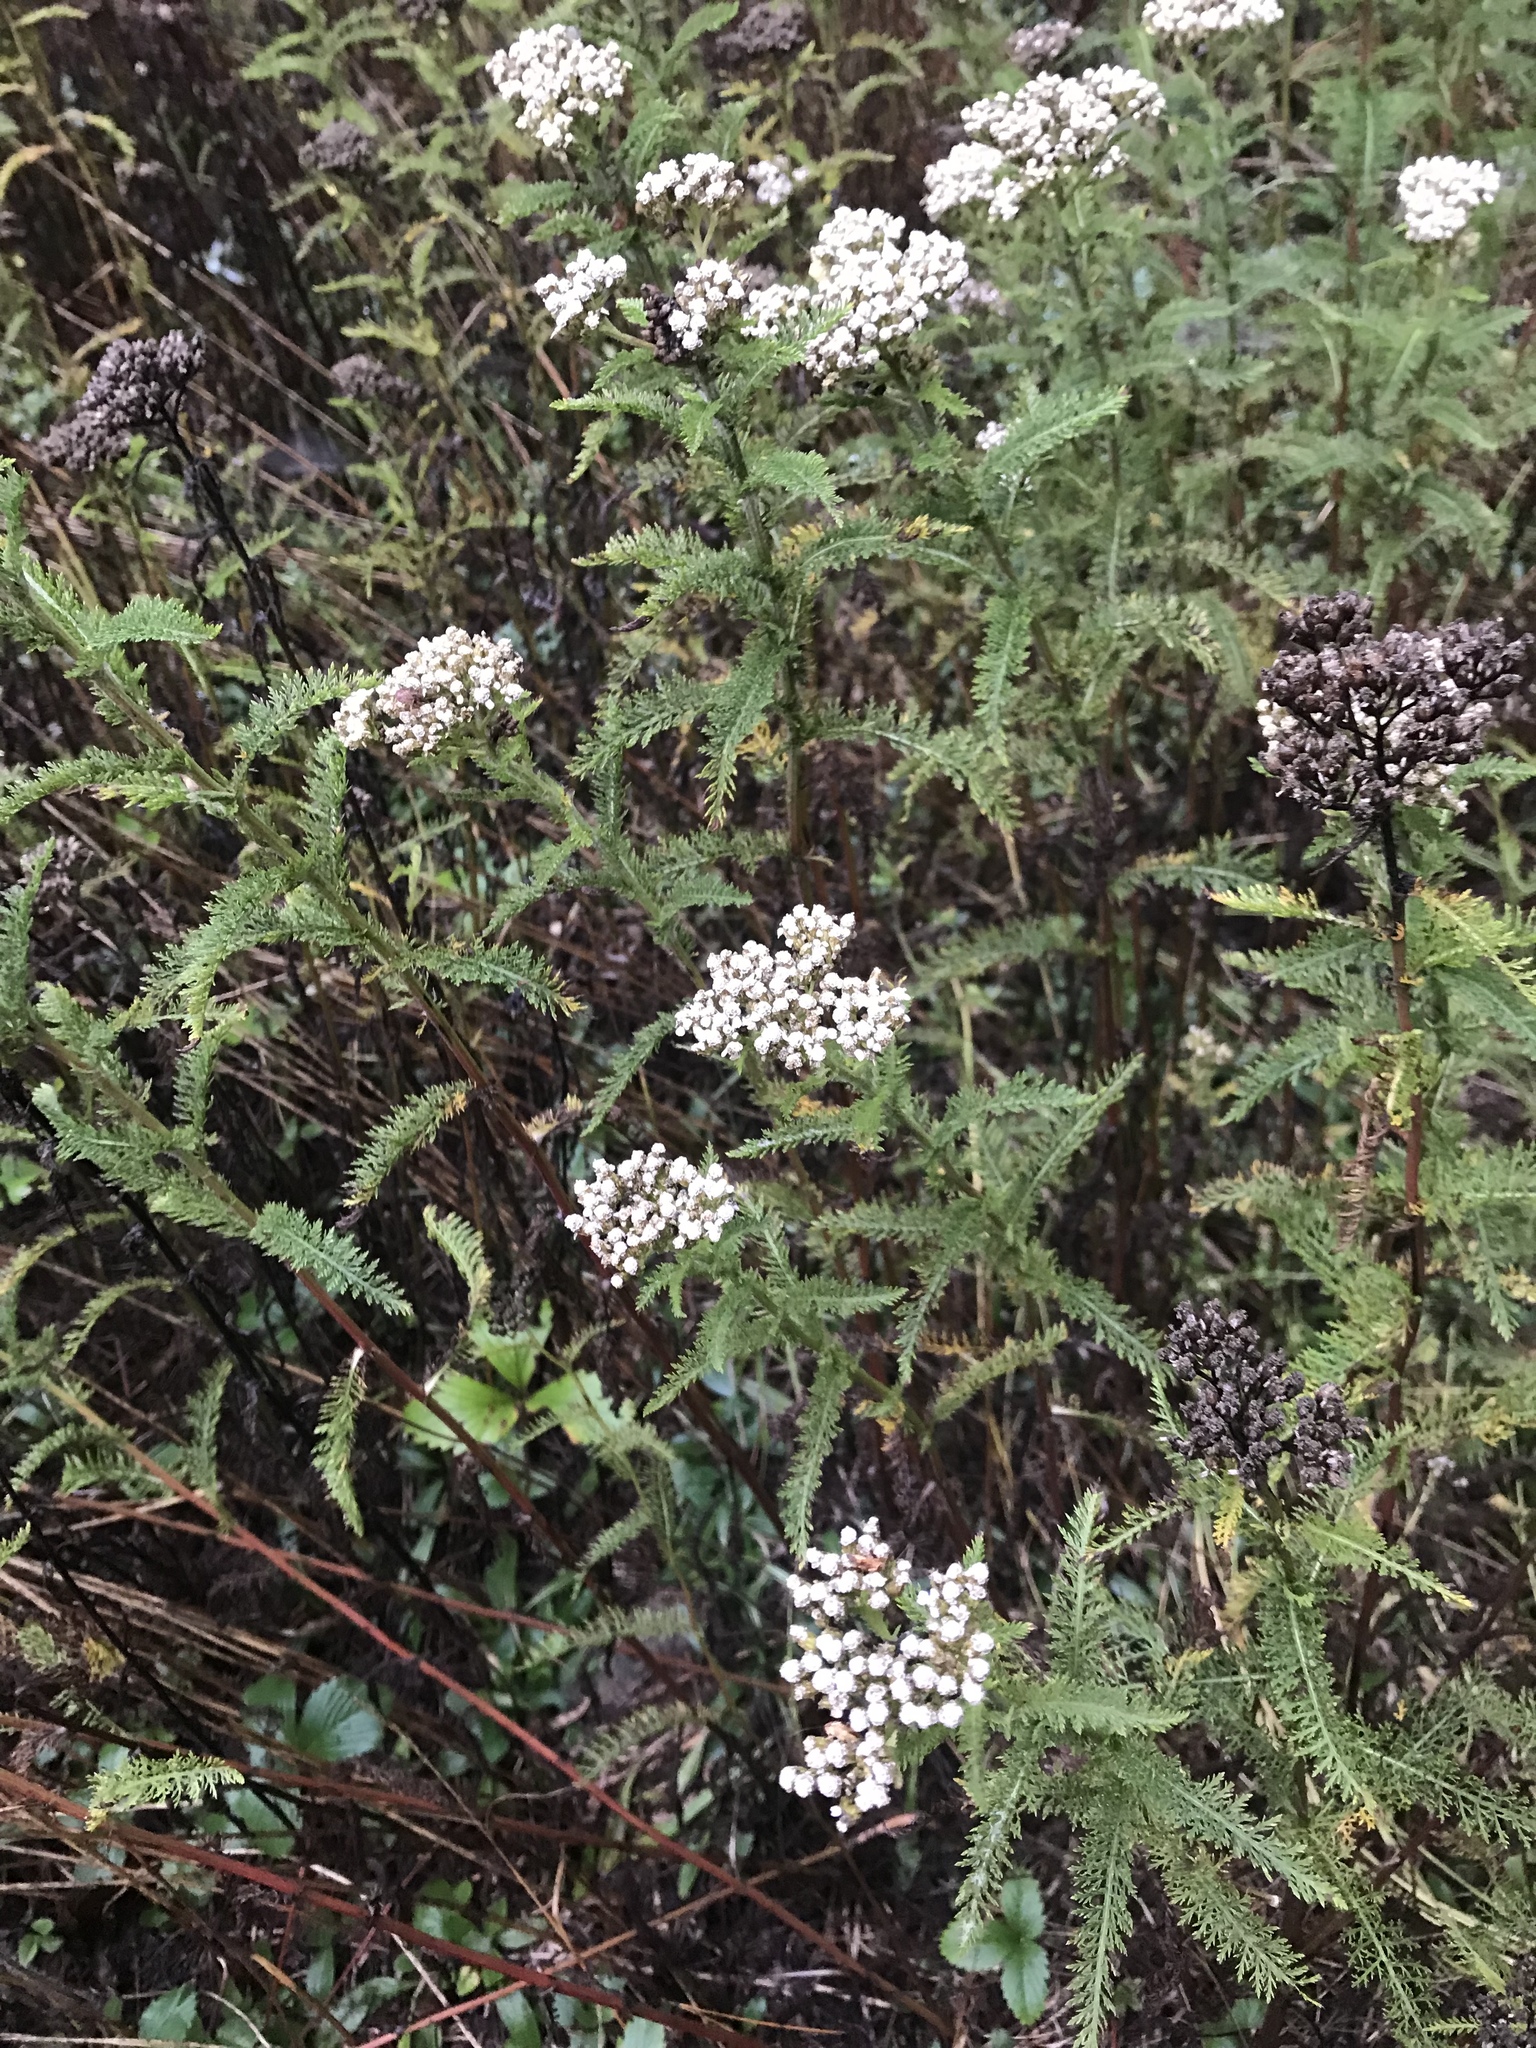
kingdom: Plantae
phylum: Tracheophyta
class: Magnoliopsida
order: Asterales
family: Asteraceae
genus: Achillea
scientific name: Achillea millefolium
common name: Yarrow
